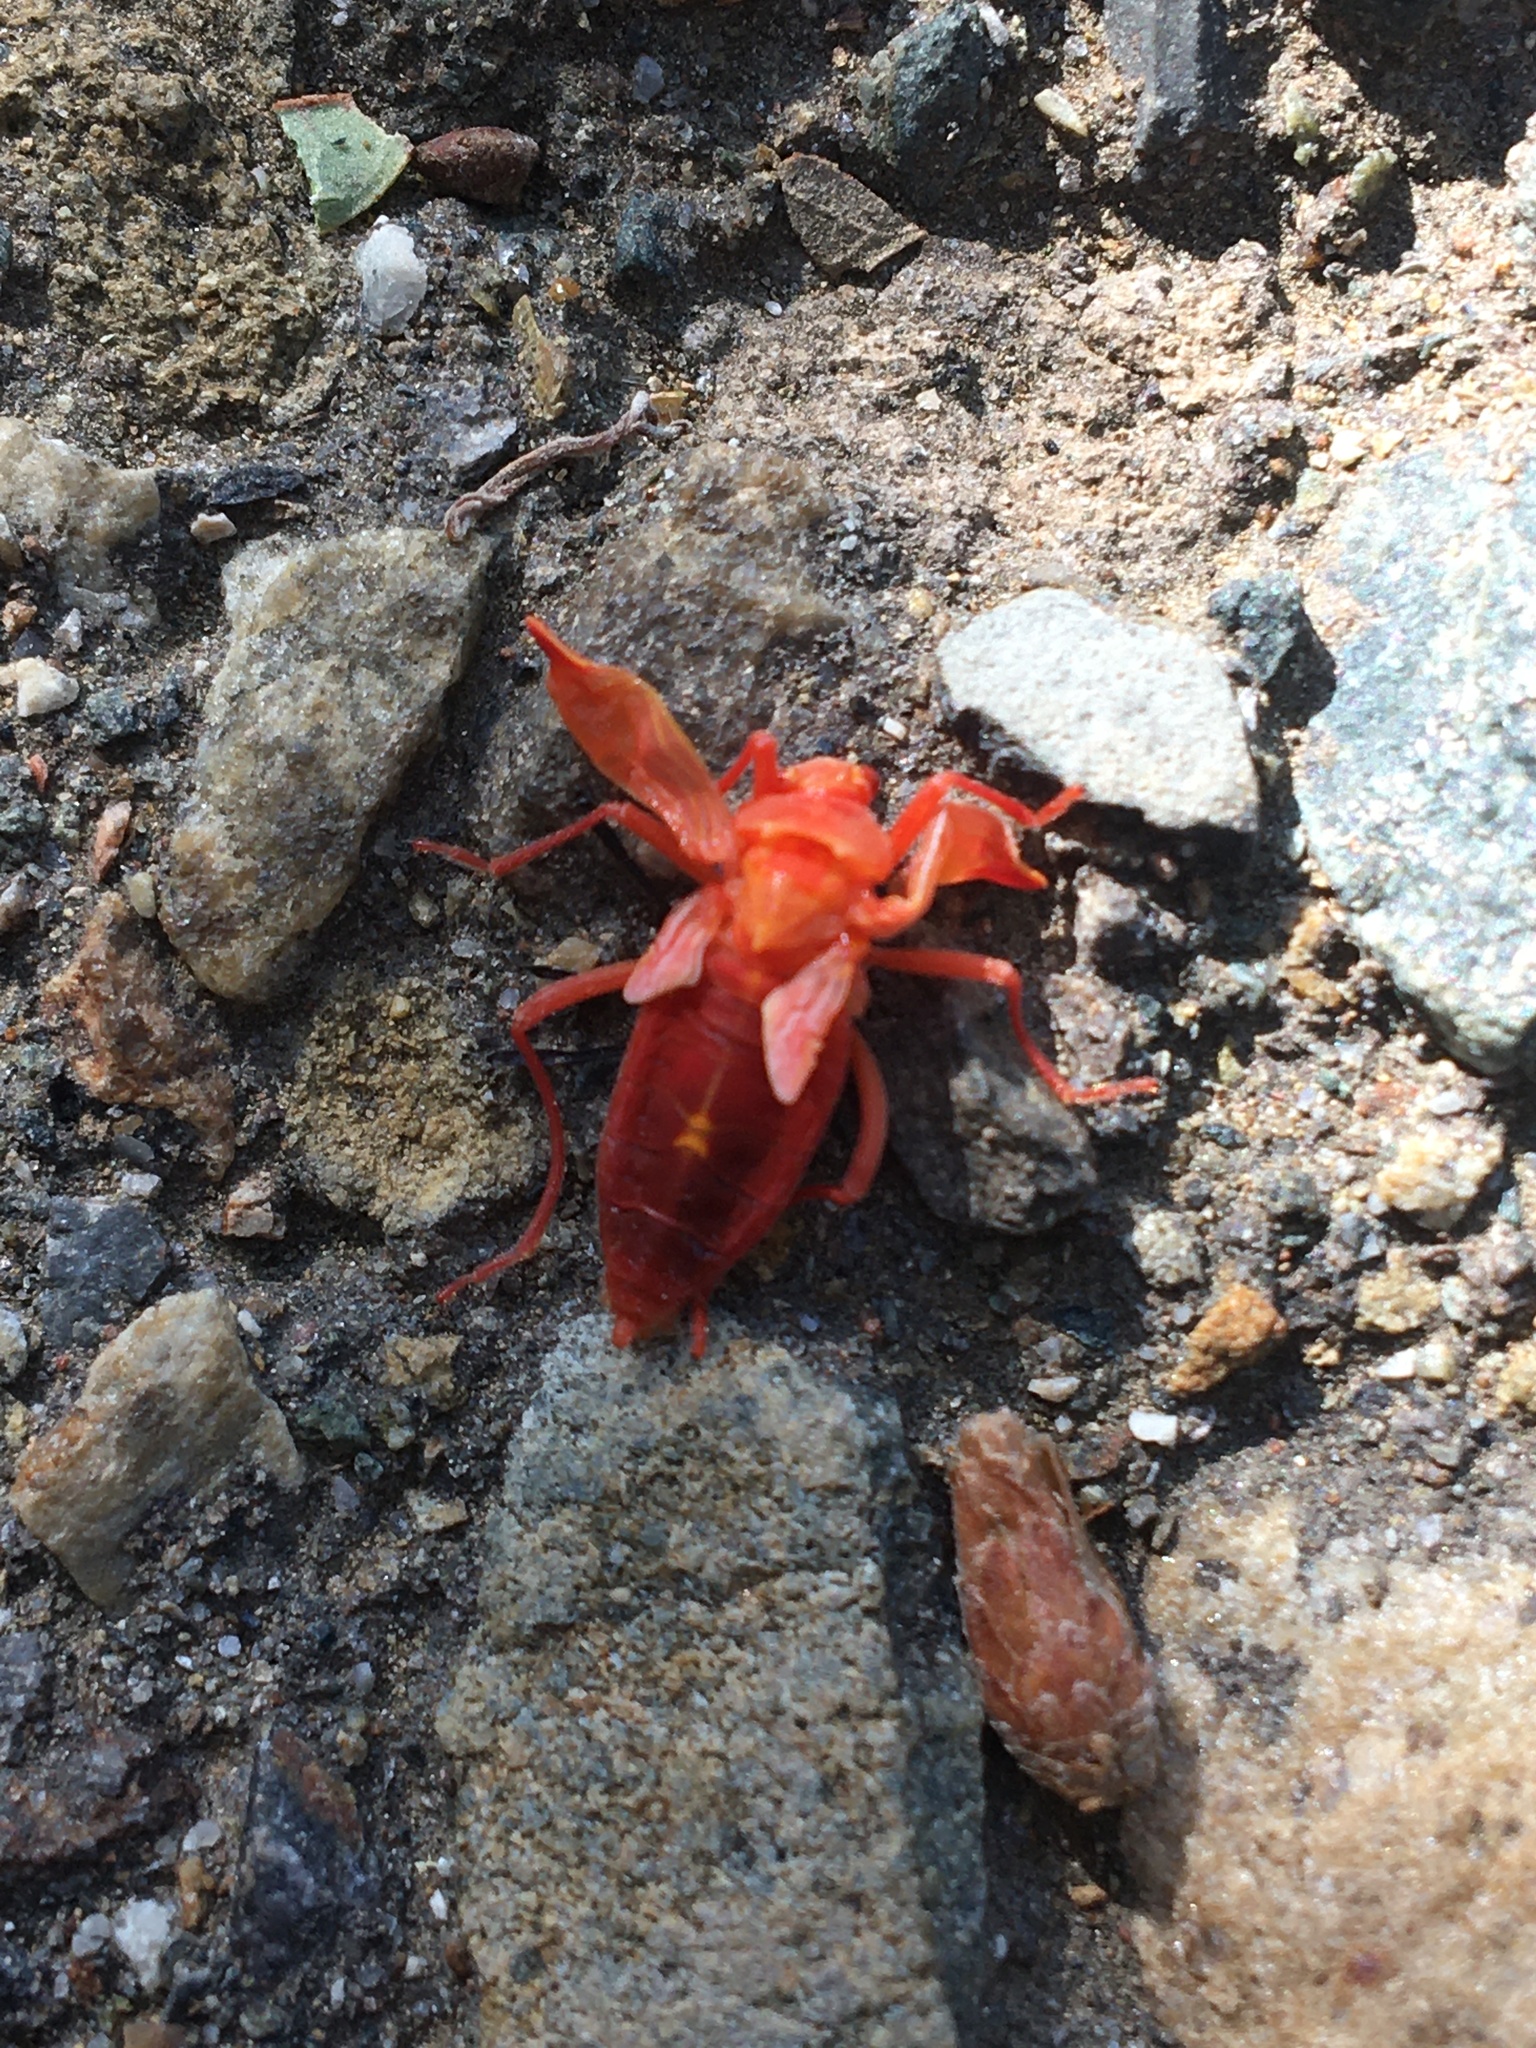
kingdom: Animalia
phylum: Arthropoda
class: Insecta
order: Hemiptera
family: Rhopalidae
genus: Boisea
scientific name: Boisea rubrolineata
